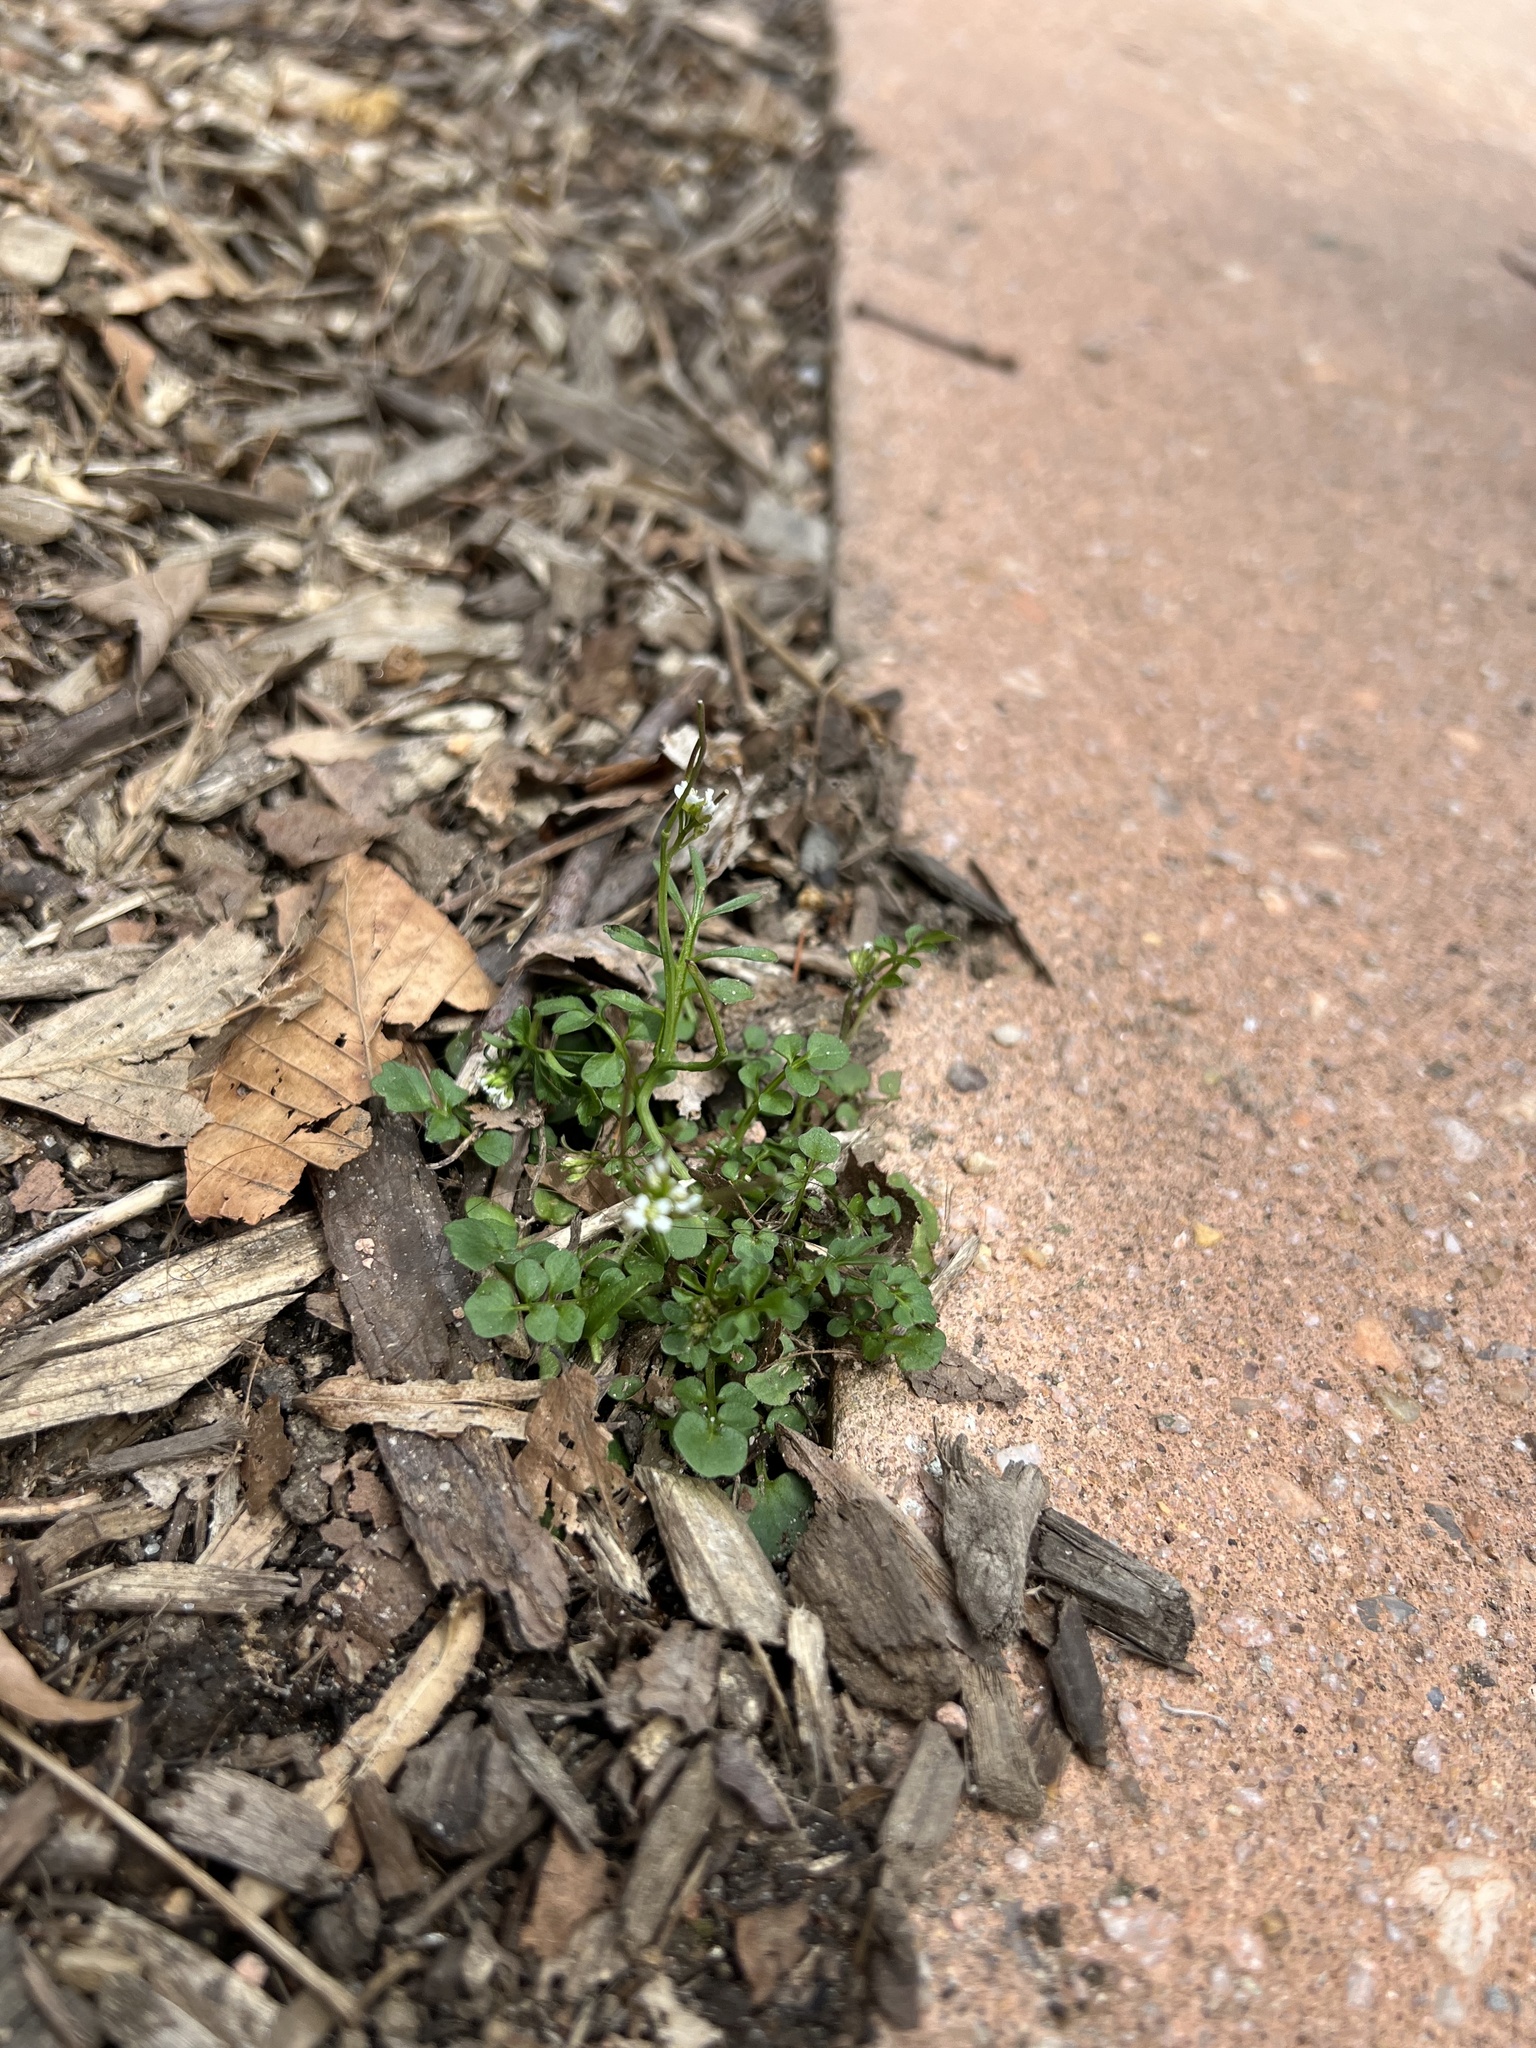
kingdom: Plantae
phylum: Tracheophyta
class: Magnoliopsida
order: Brassicales
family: Brassicaceae
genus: Cardamine
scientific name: Cardamine hirsuta
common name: Hairy bittercress
